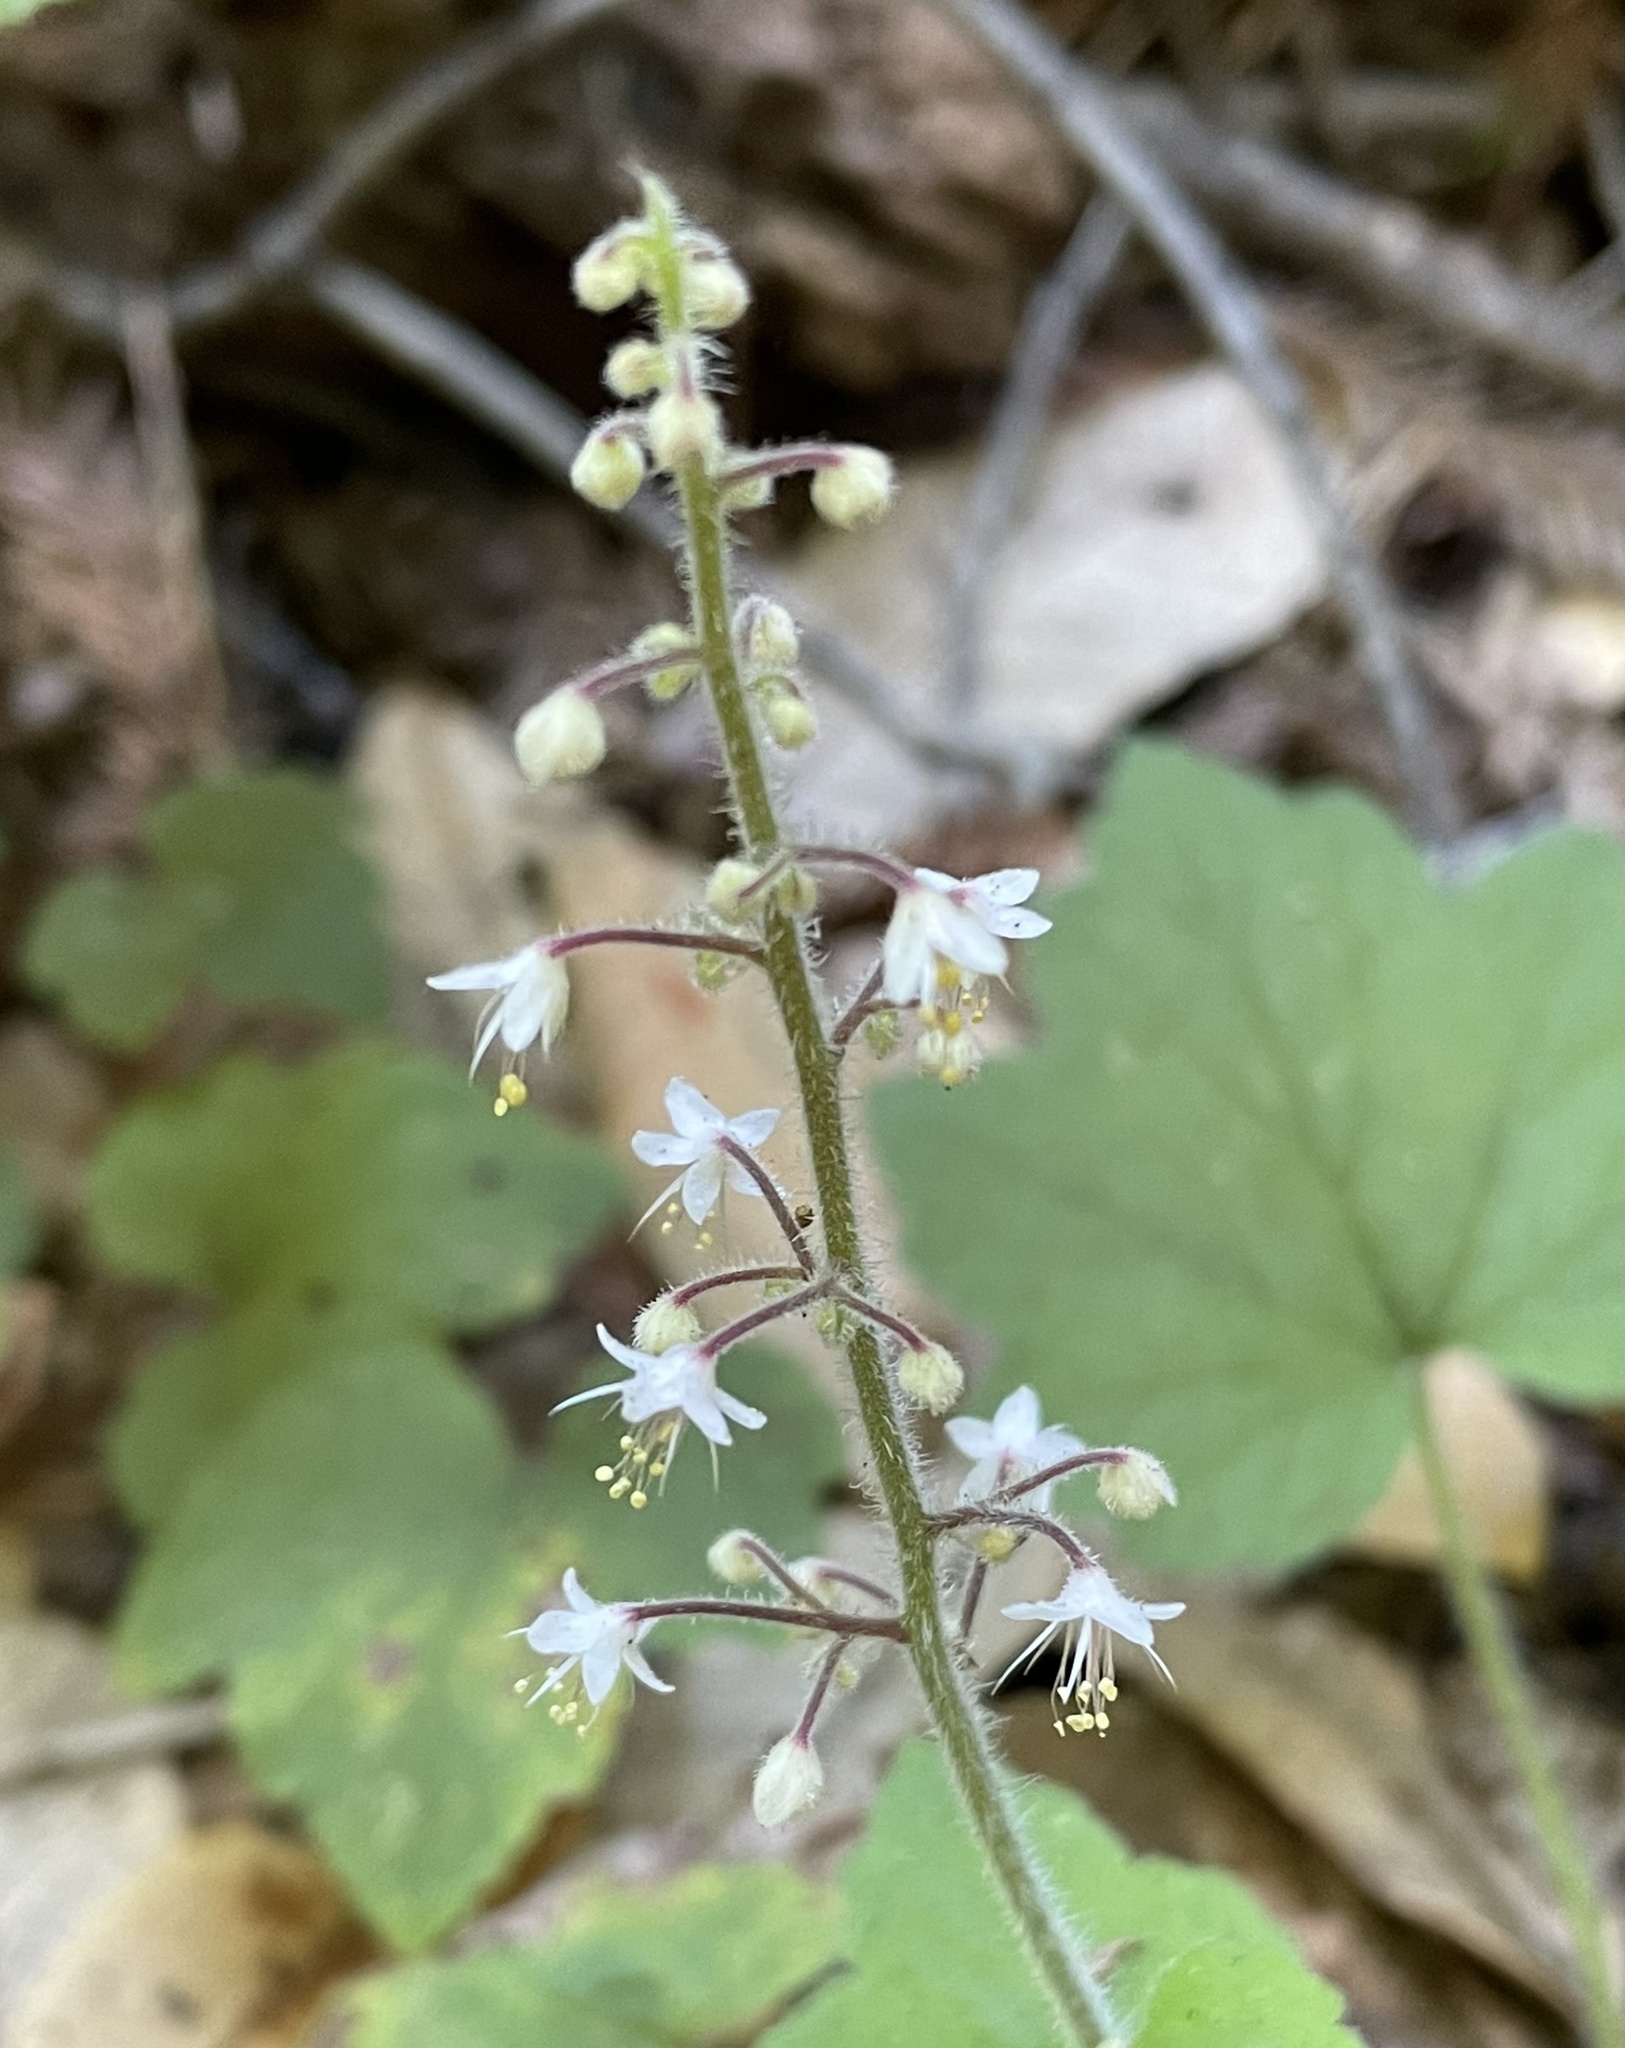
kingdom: Plantae
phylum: Tracheophyta
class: Magnoliopsida
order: Saxifragales
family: Saxifragaceae
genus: Tiarella
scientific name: Tiarella trifoliata
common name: Sugar-scoop
